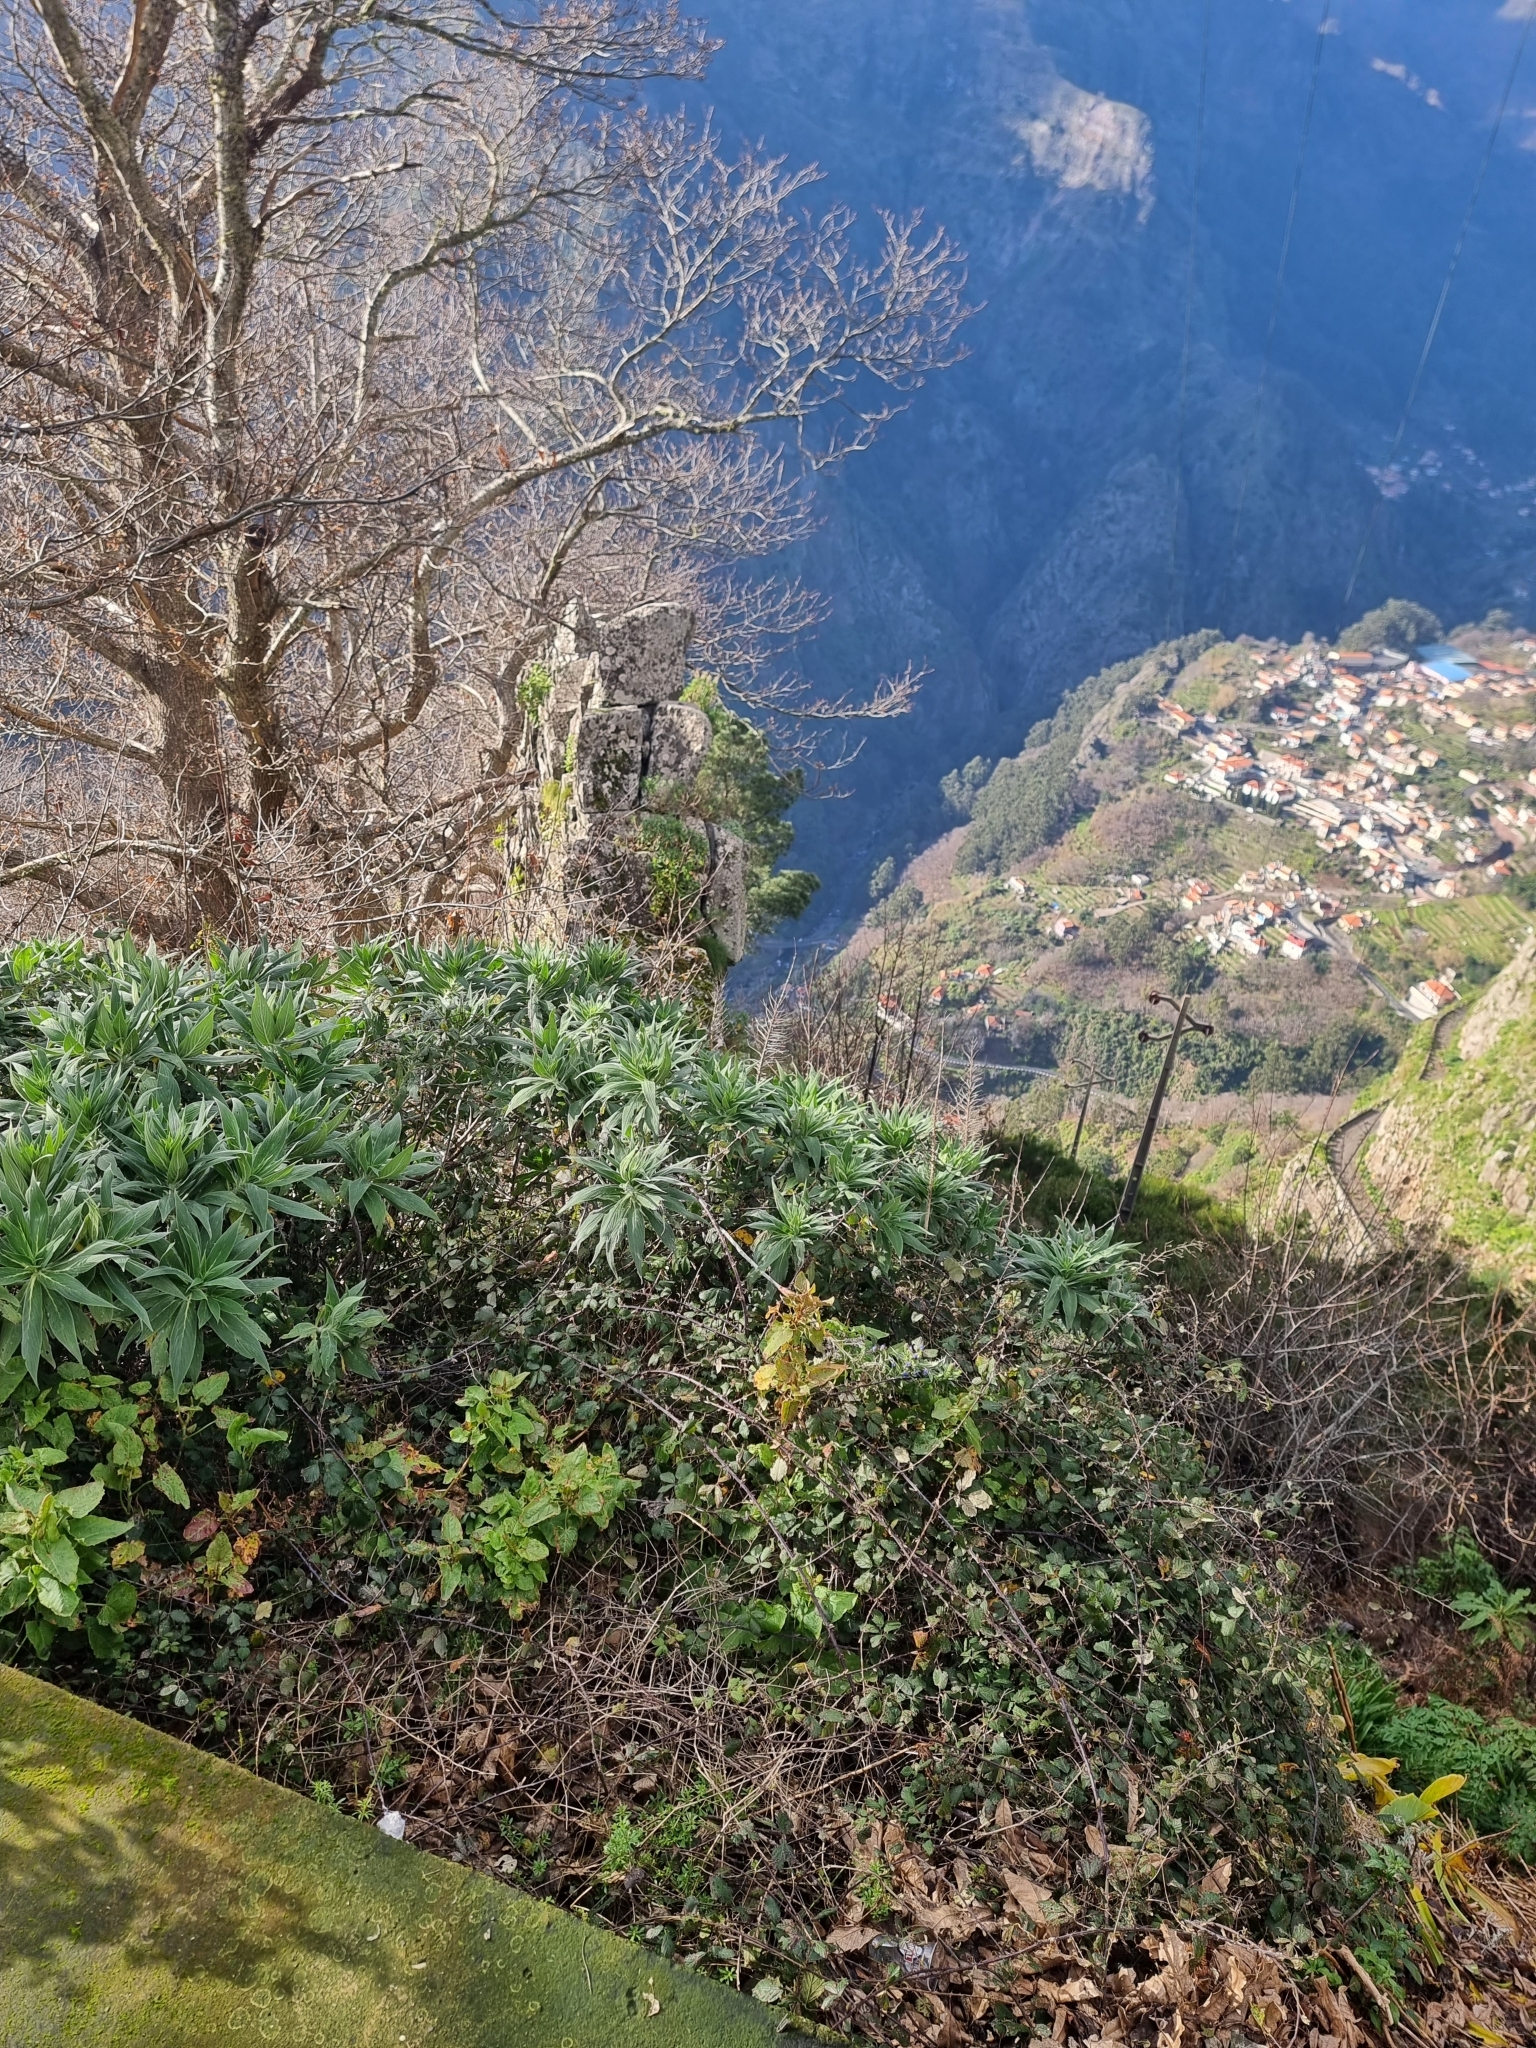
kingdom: Plantae
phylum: Tracheophyta
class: Magnoliopsida
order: Boraginales
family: Boraginaceae
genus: Echium
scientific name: Echium candicans
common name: Pride of madeira
